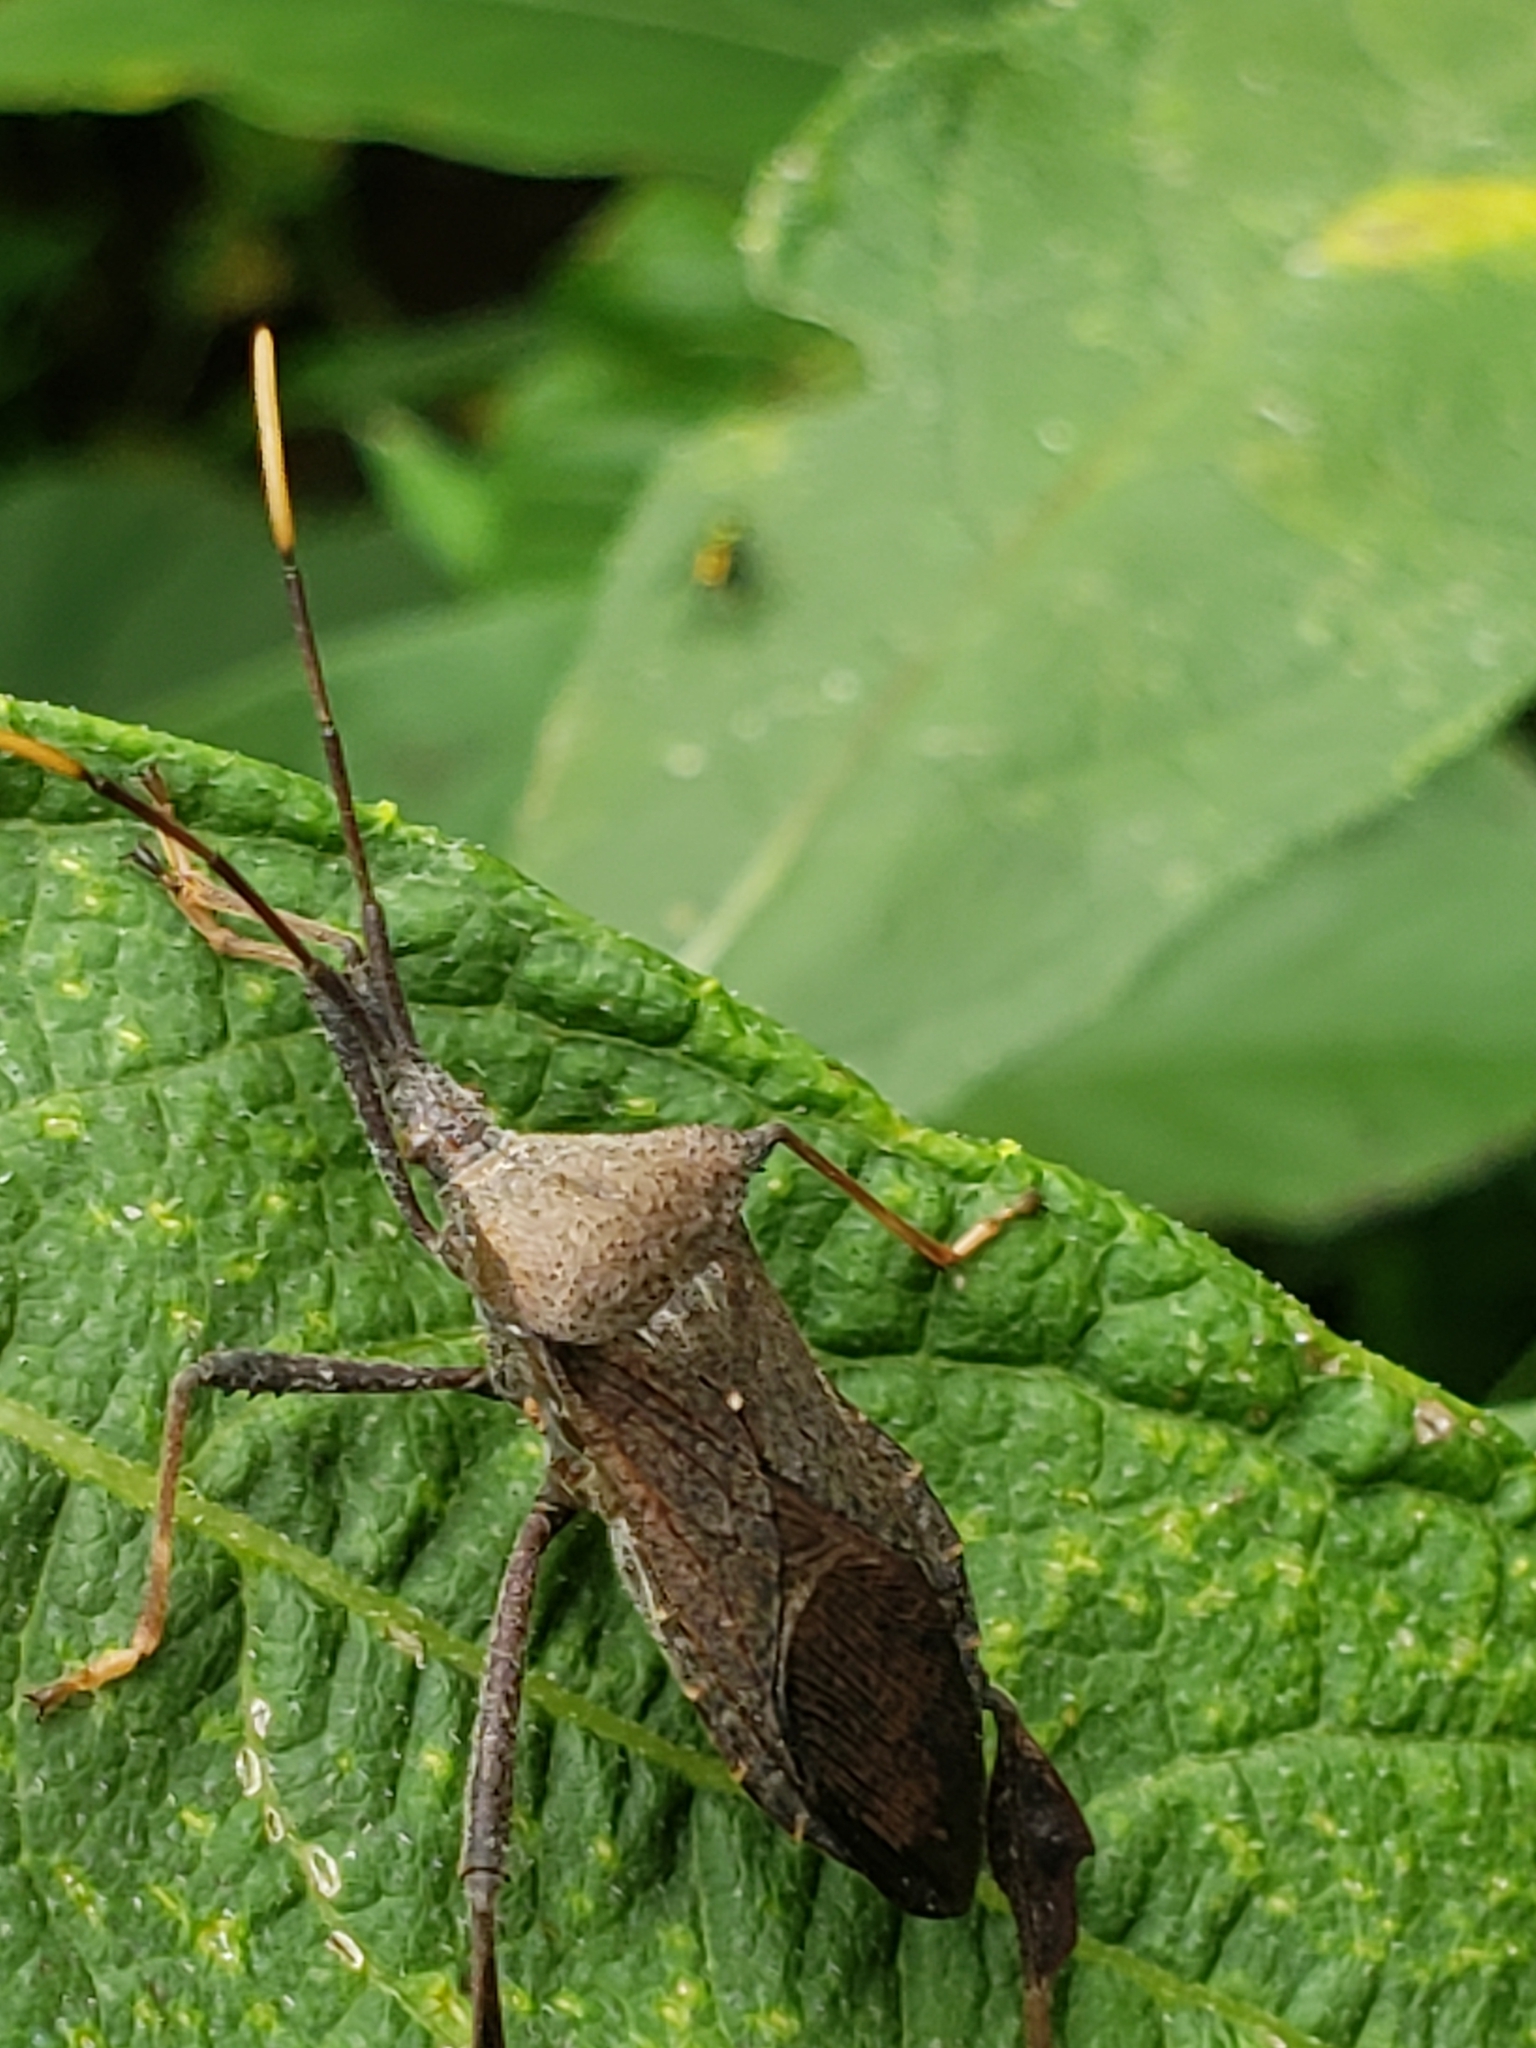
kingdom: Animalia
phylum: Arthropoda
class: Insecta
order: Hemiptera
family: Coreidae
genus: Acanthocephala
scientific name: Acanthocephala terminalis
